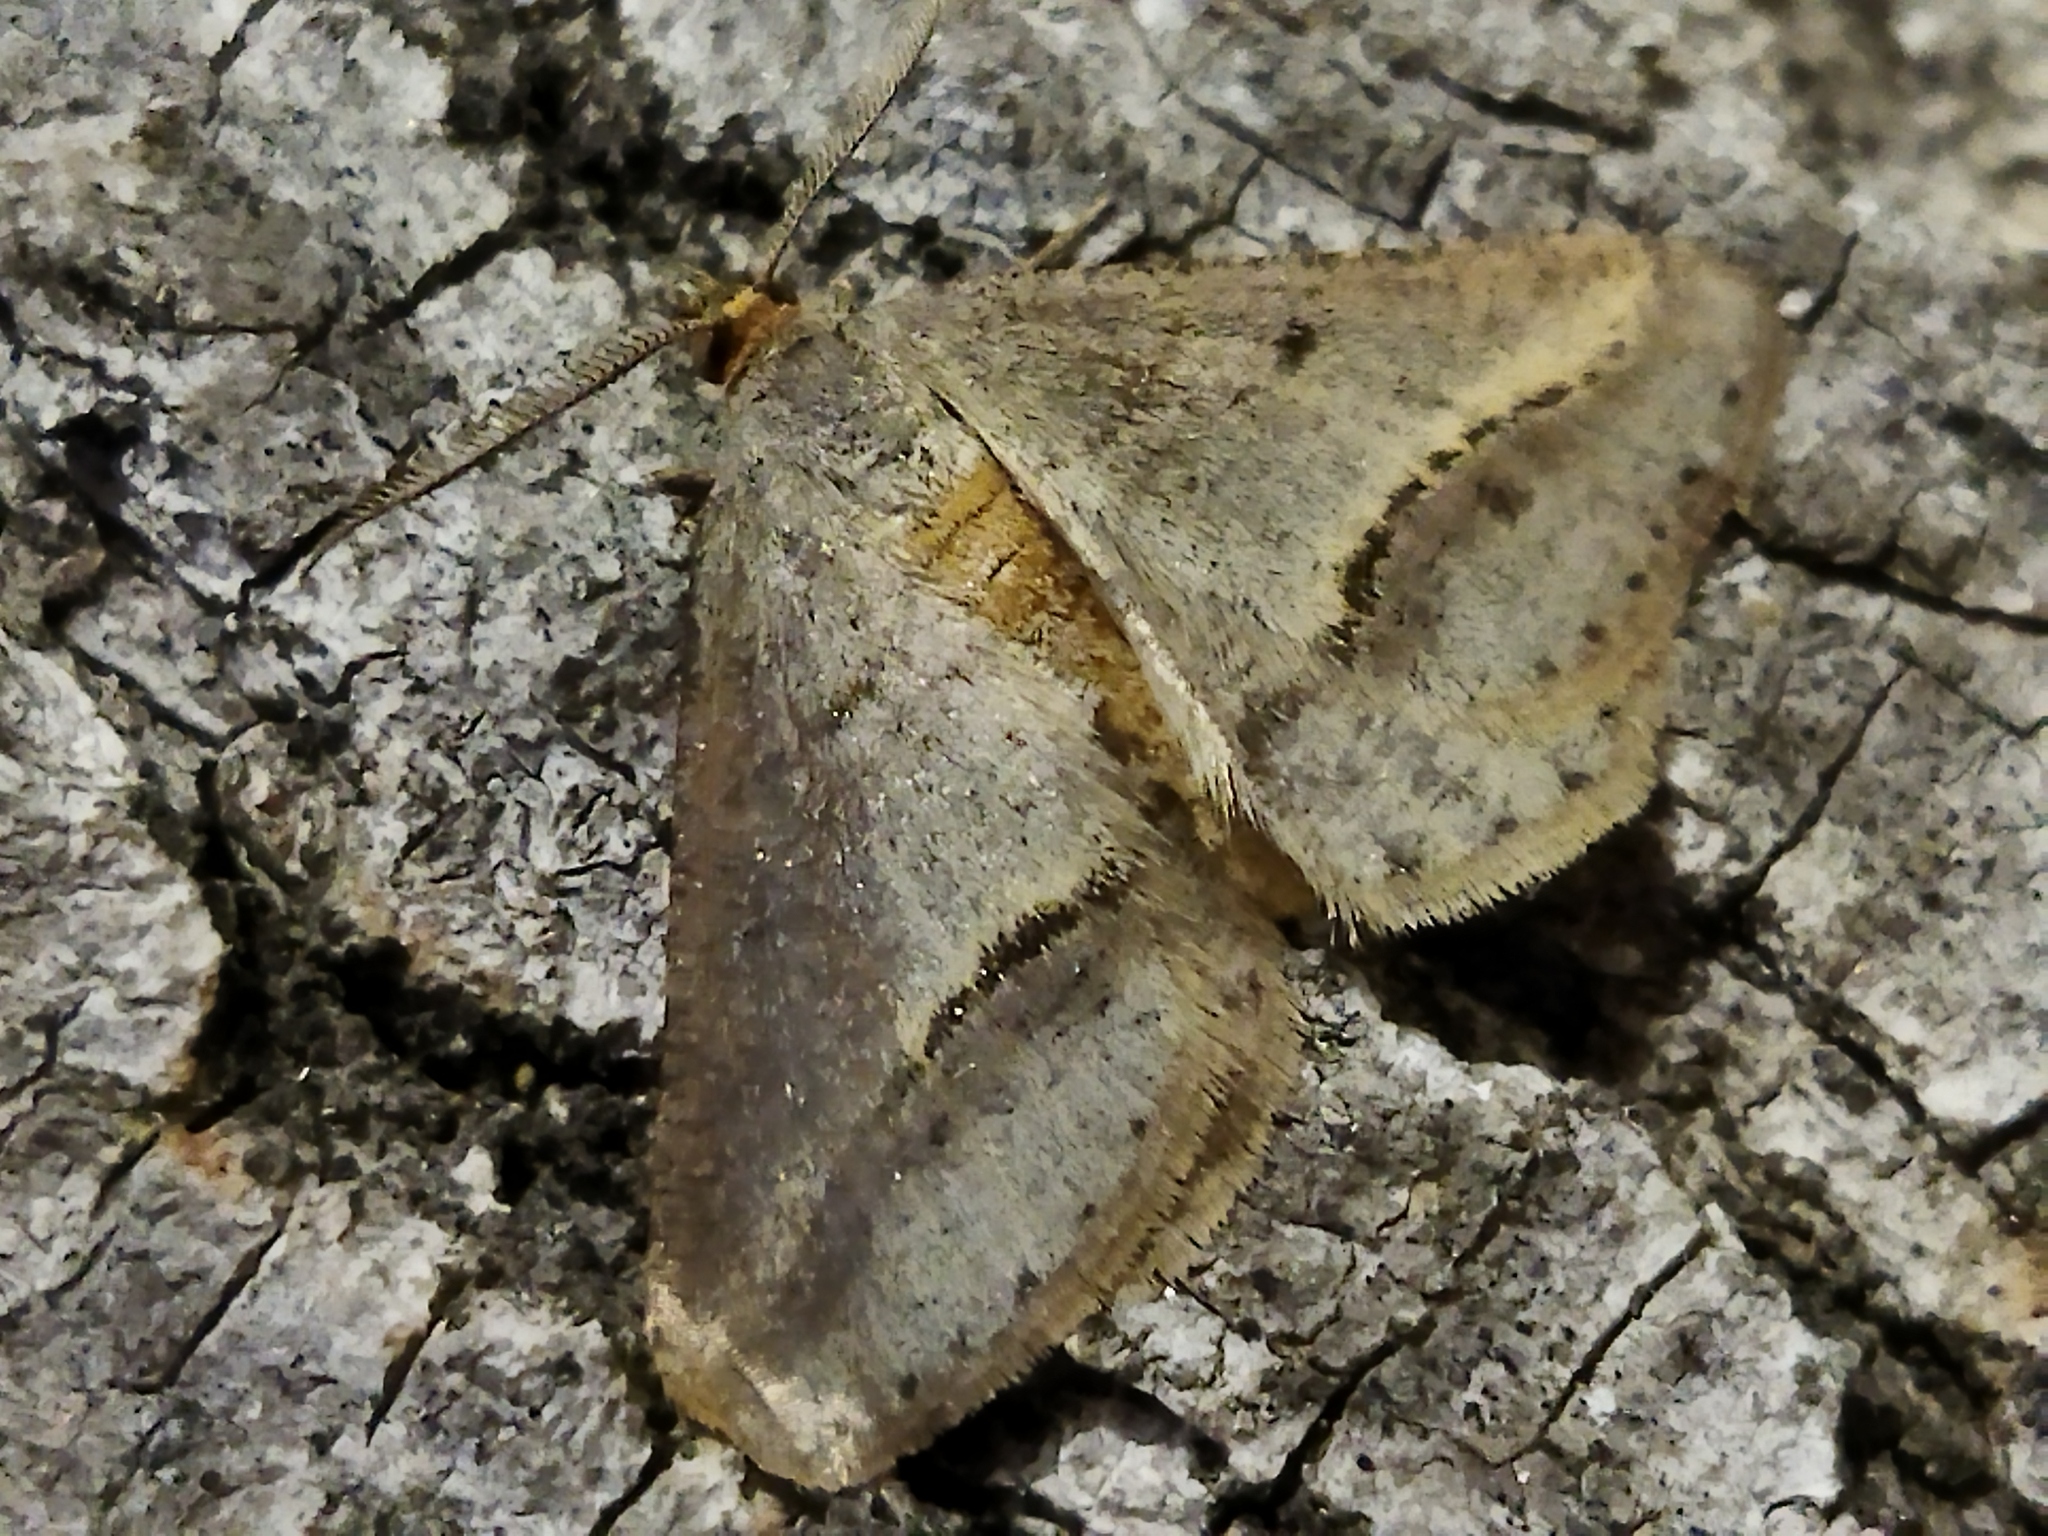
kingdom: Animalia
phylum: Arthropoda
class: Insecta
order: Lepidoptera
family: Geometridae
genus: Tephrina
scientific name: Tephrina arenacearia
